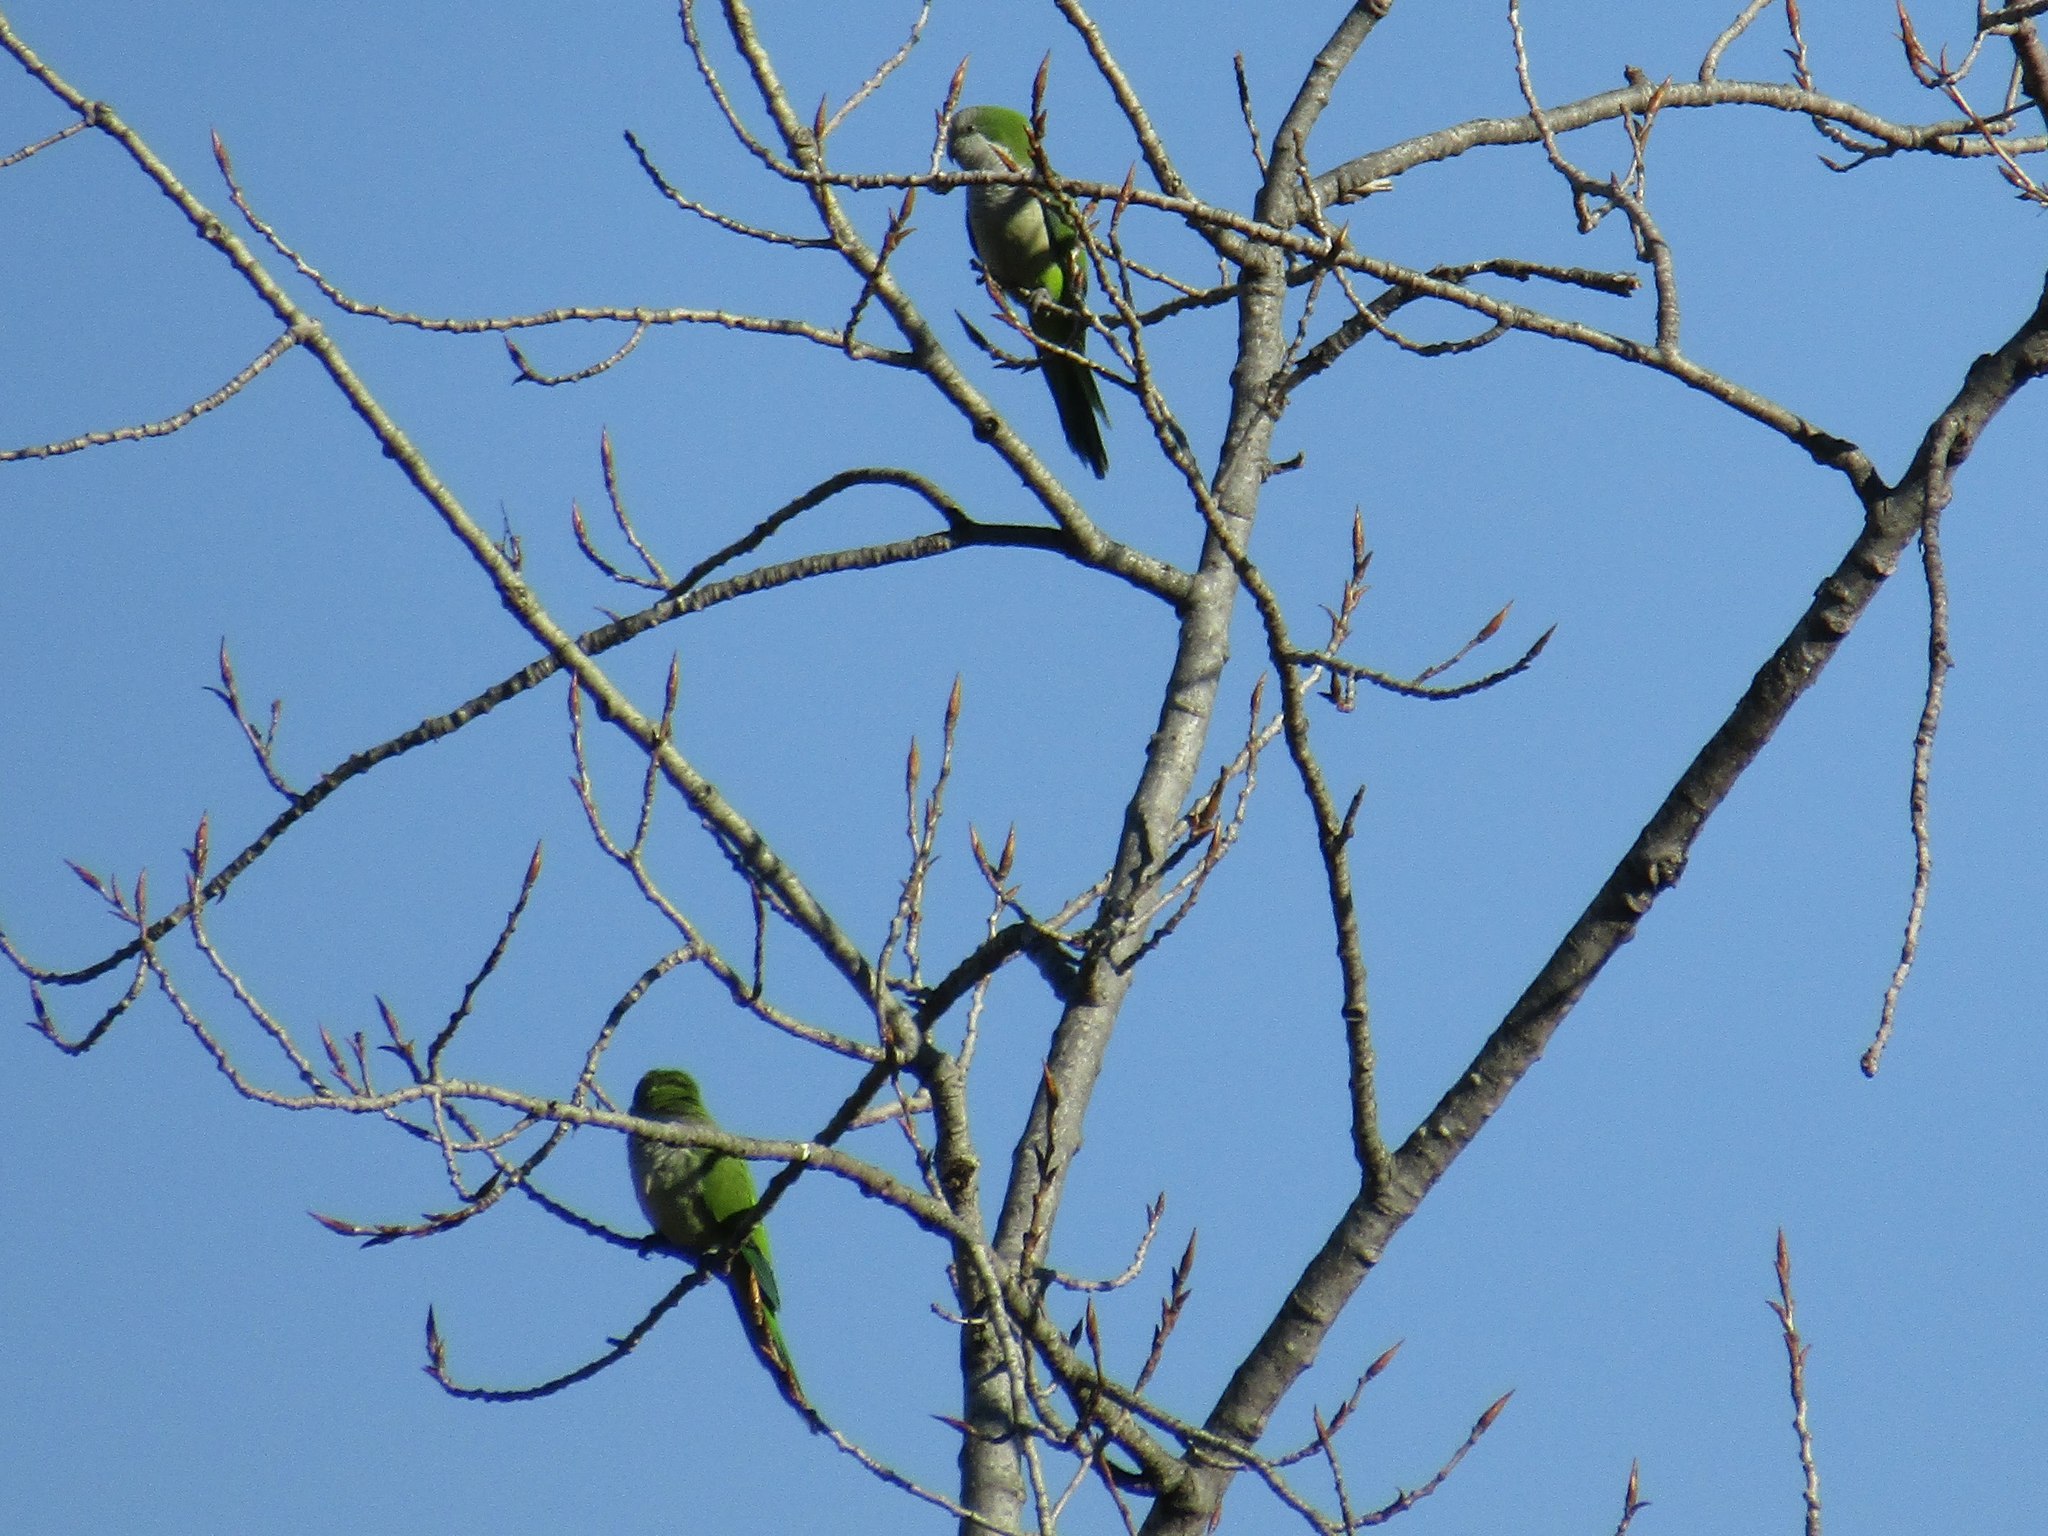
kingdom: Animalia
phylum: Chordata
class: Aves
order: Psittaciformes
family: Psittacidae
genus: Myiopsitta
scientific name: Myiopsitta monachus
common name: Monk parakeet
